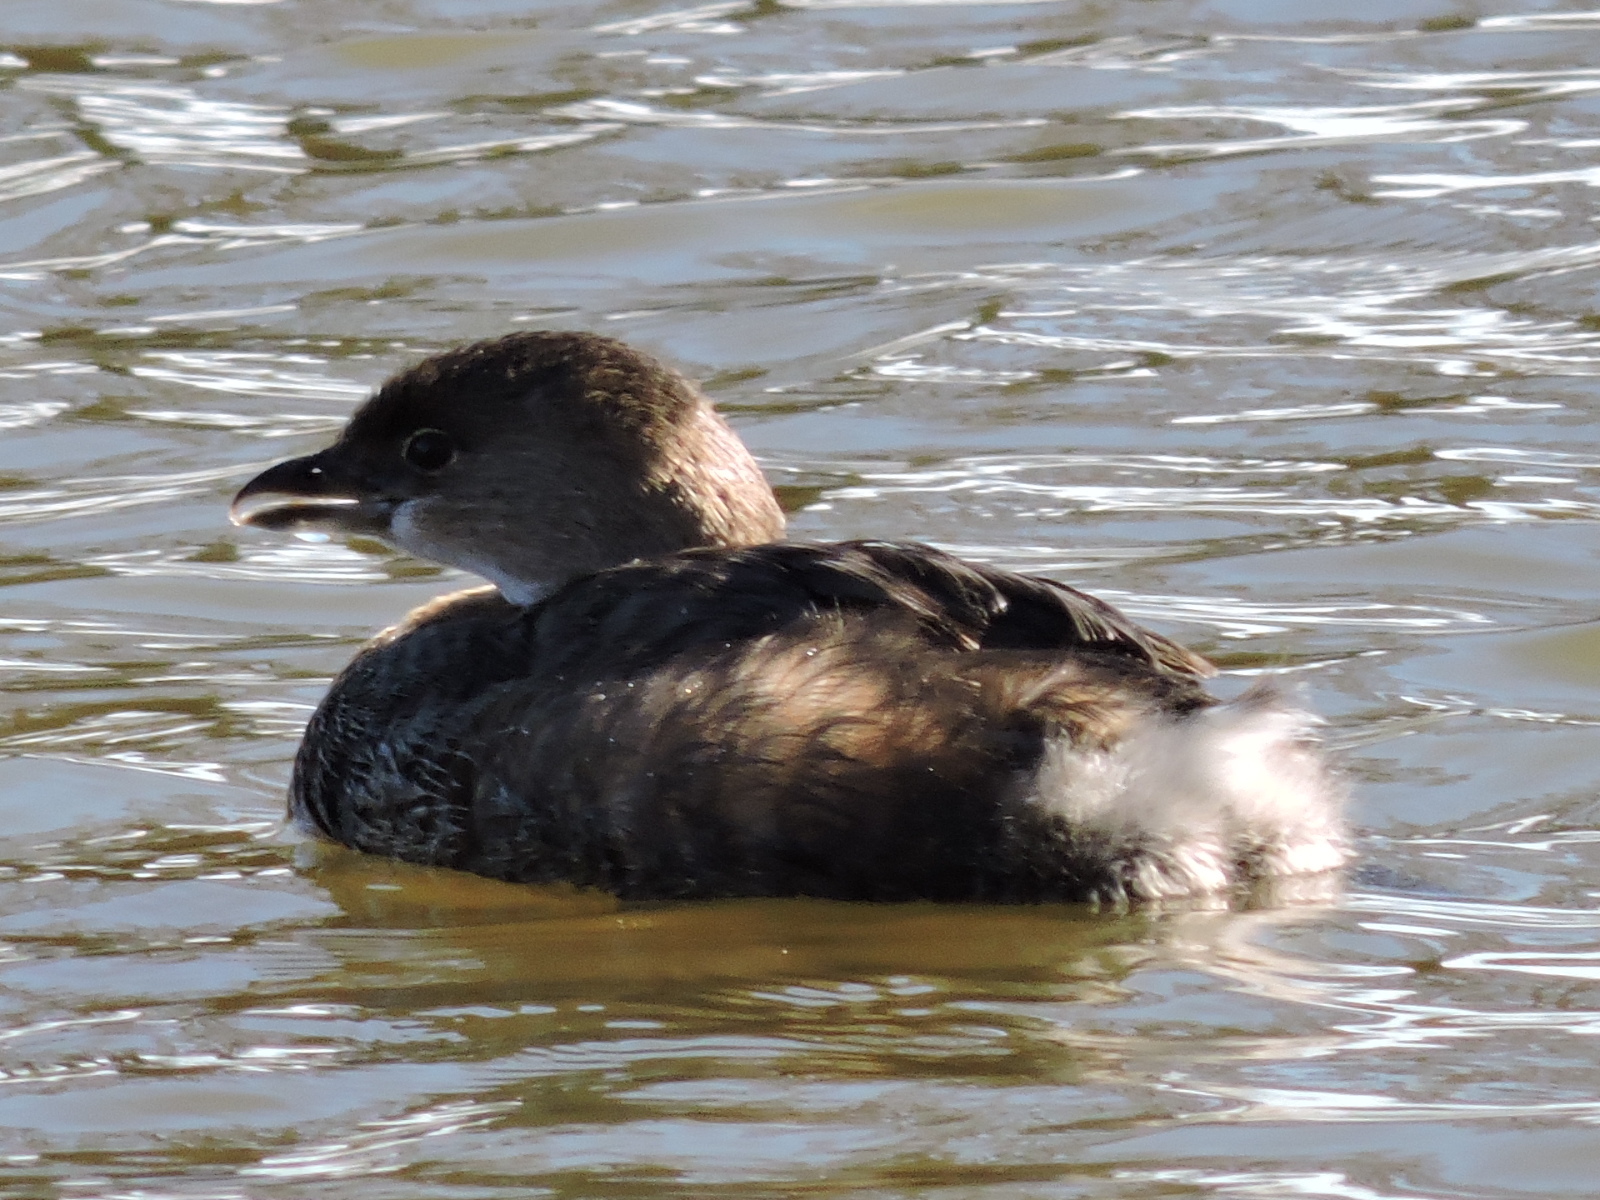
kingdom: Animalia
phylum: Chordata
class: Aves
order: Podicipediformes
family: Podicipedidae
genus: Podilymbus
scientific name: Podilymbus podiceps
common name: Pied-billed grebe
